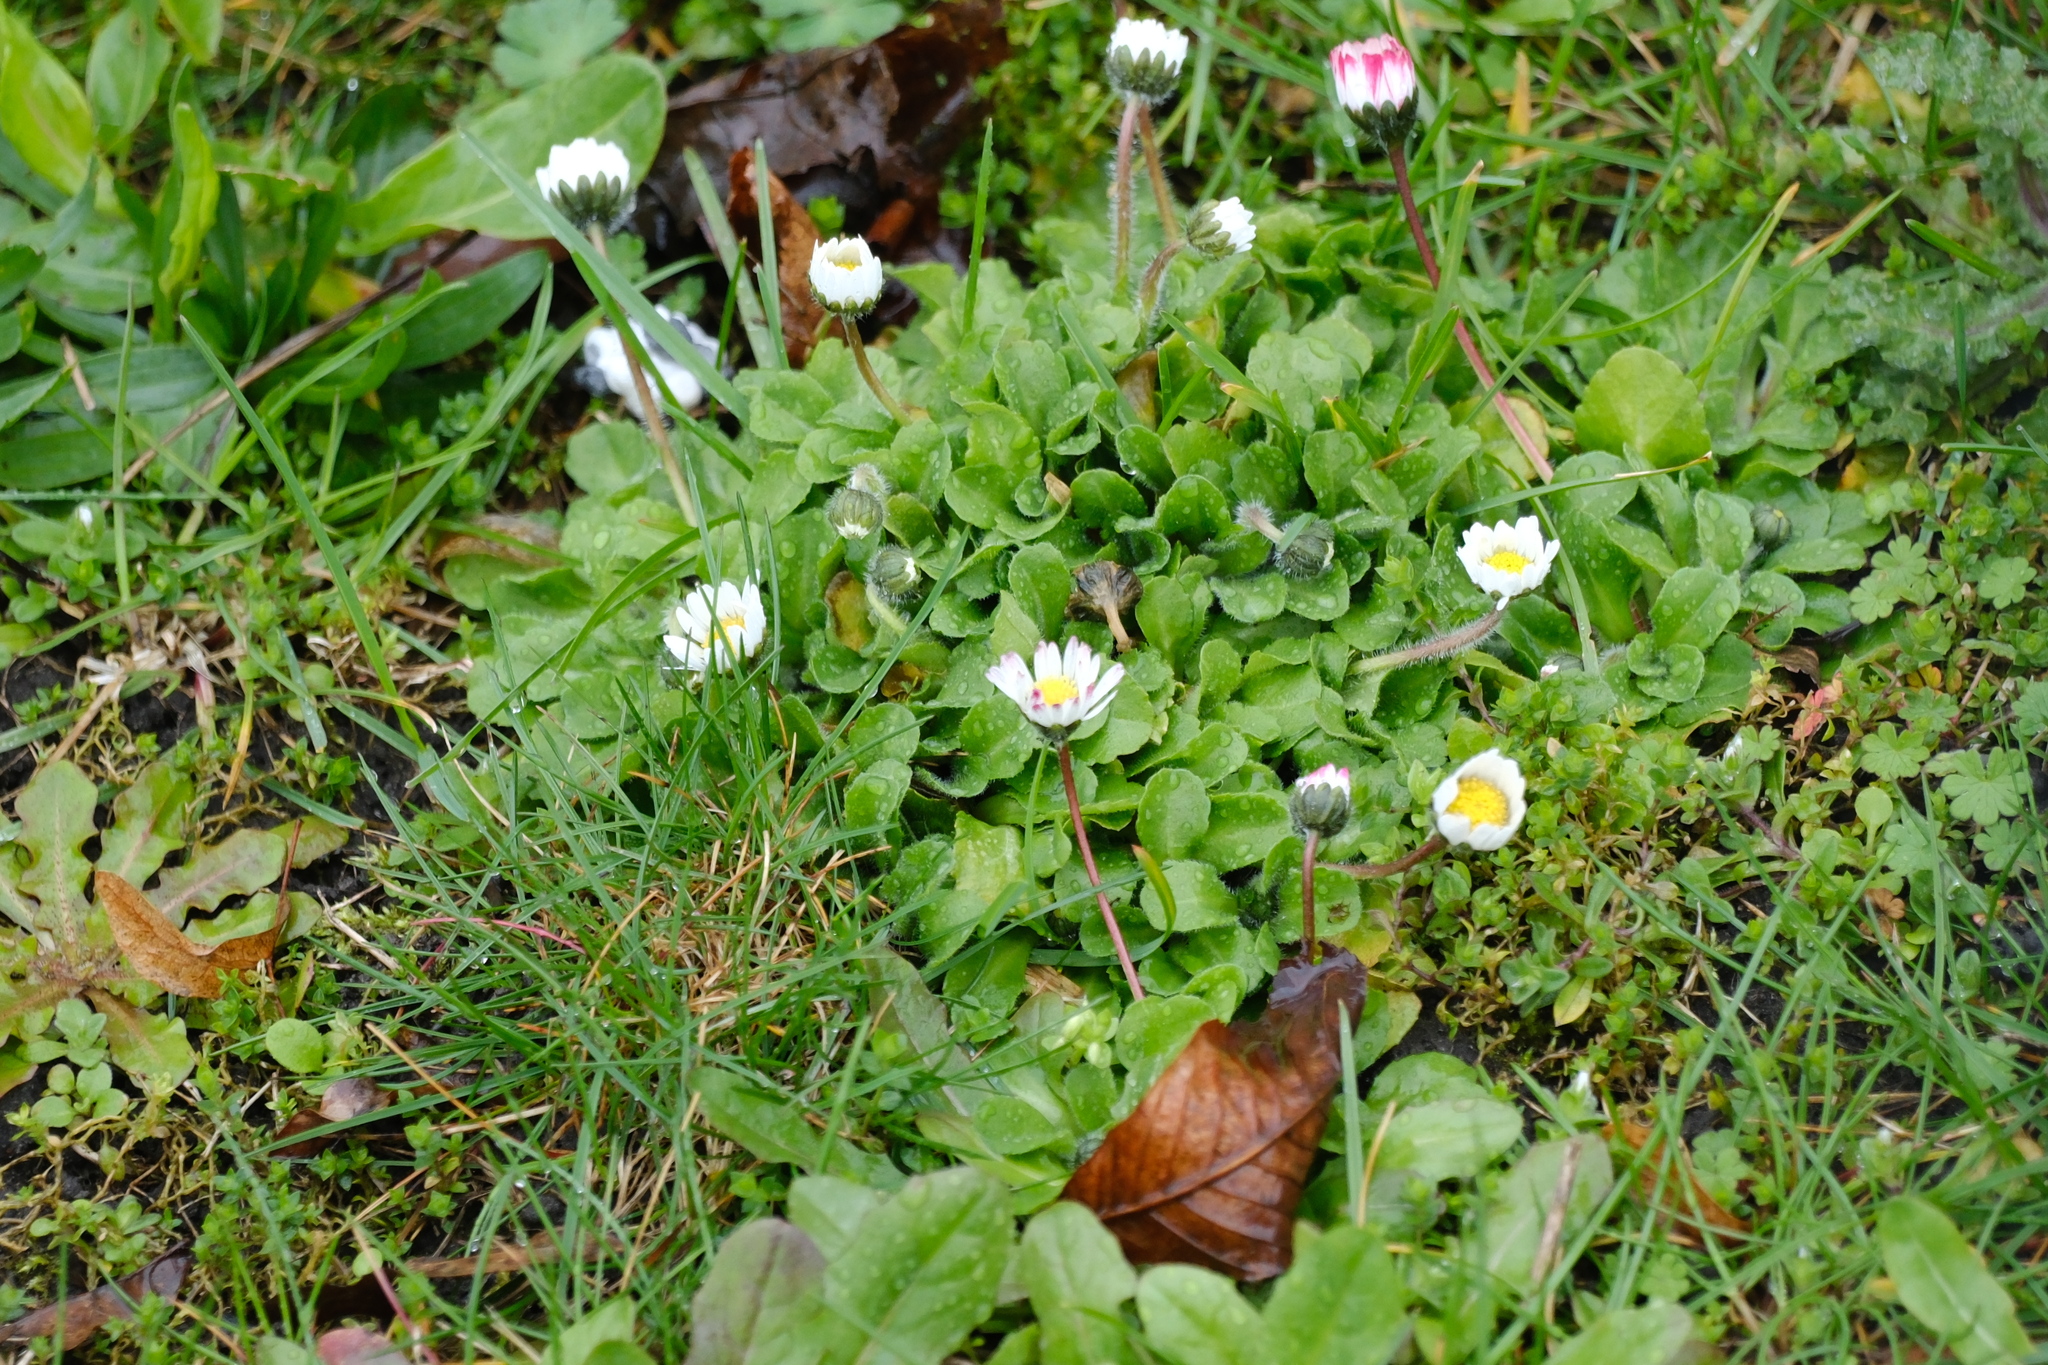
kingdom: Plantae
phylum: Tracheophyta
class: Magnoliopsida
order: Asterales
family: Asteraceae
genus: Bellis
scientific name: Bellis perennis
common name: Lawndaisy
